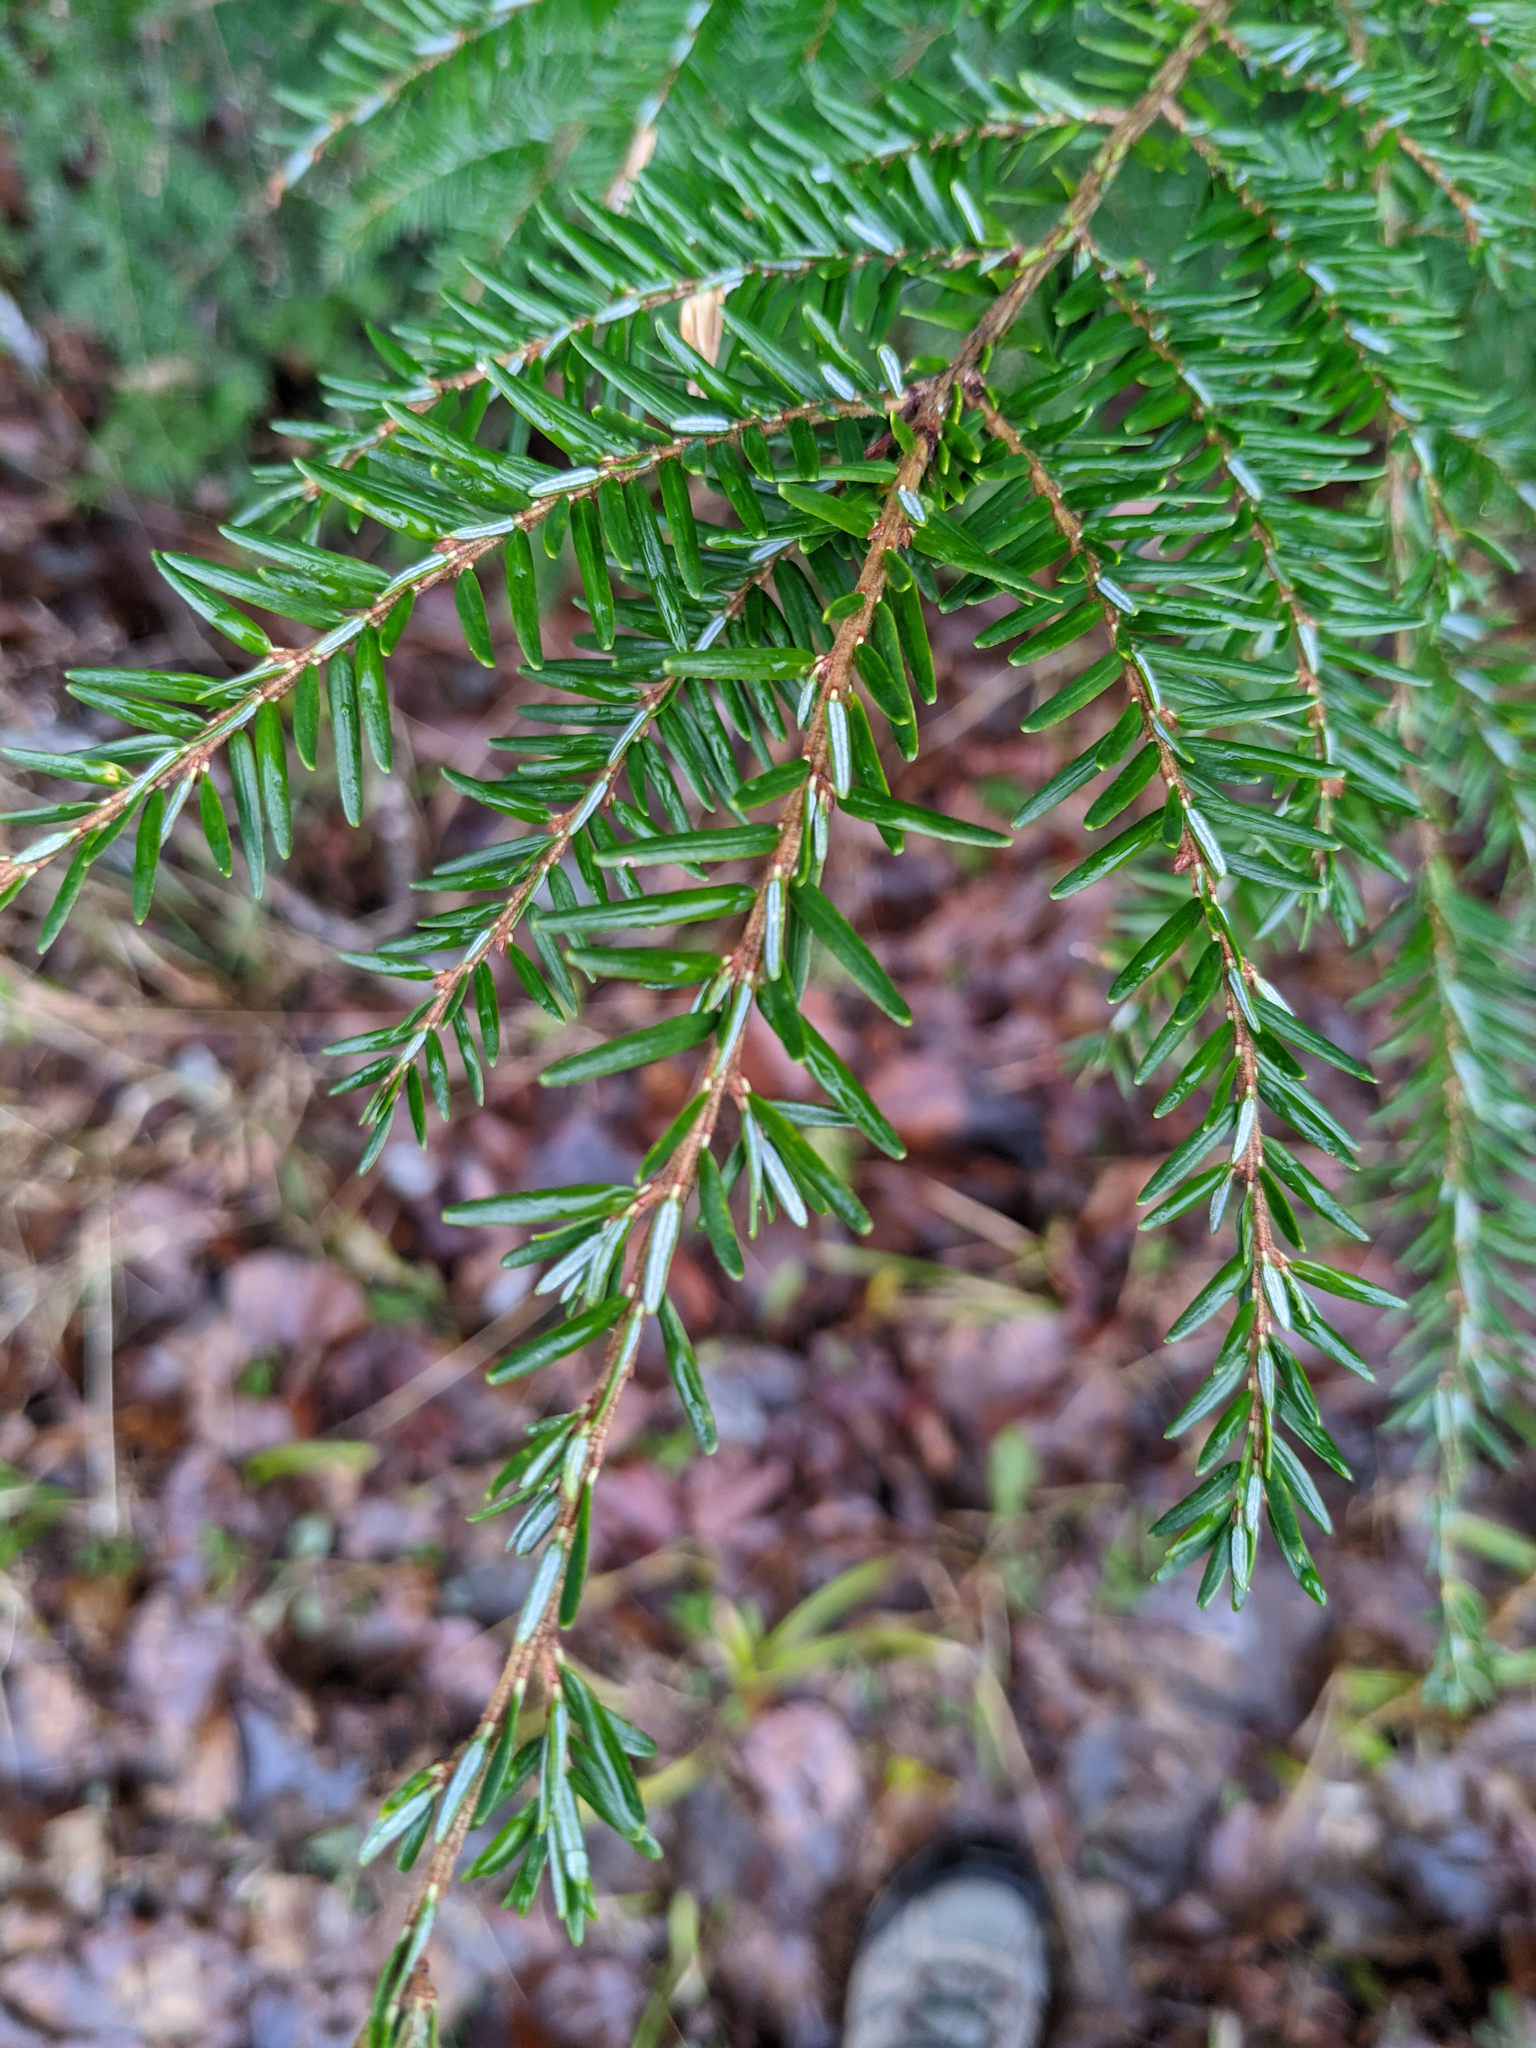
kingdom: Plantae
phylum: Tracheophyta
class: Pinopsida
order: Pinales
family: Pinaceae
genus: Tsuga
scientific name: Tsuga canadensis
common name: Eastern hemlock
